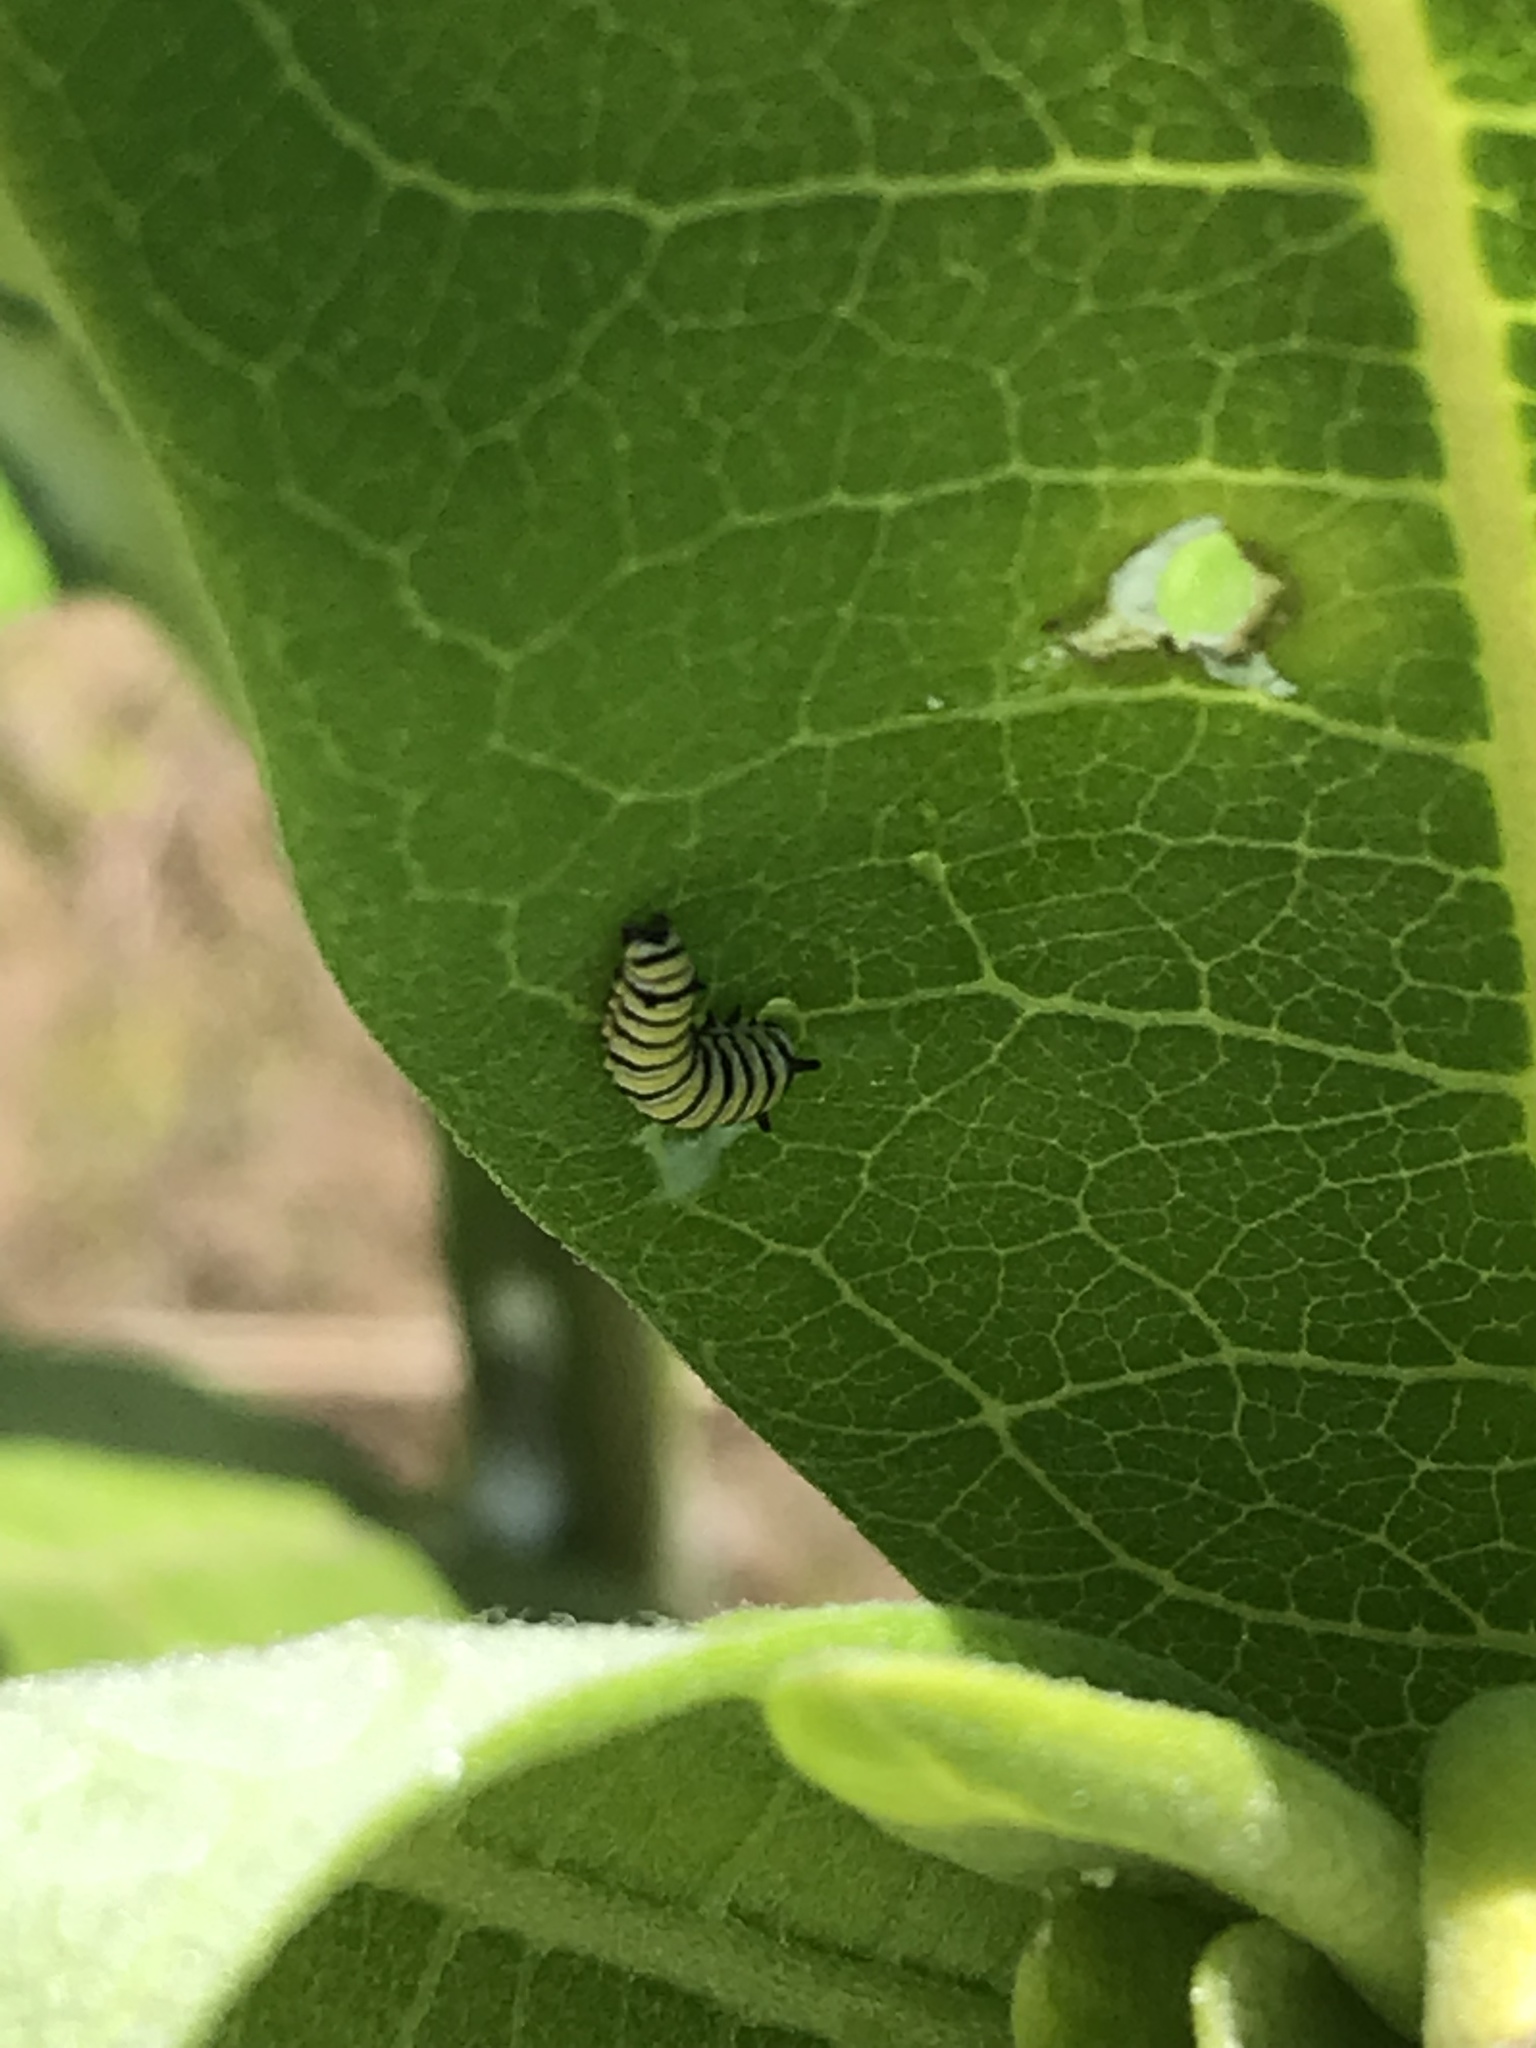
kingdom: Animalia
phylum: Arthropoda
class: Insecta
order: Lepidoptera
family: Nymphalidae
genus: Danaus
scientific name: Danaus plexippus
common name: Monarch
